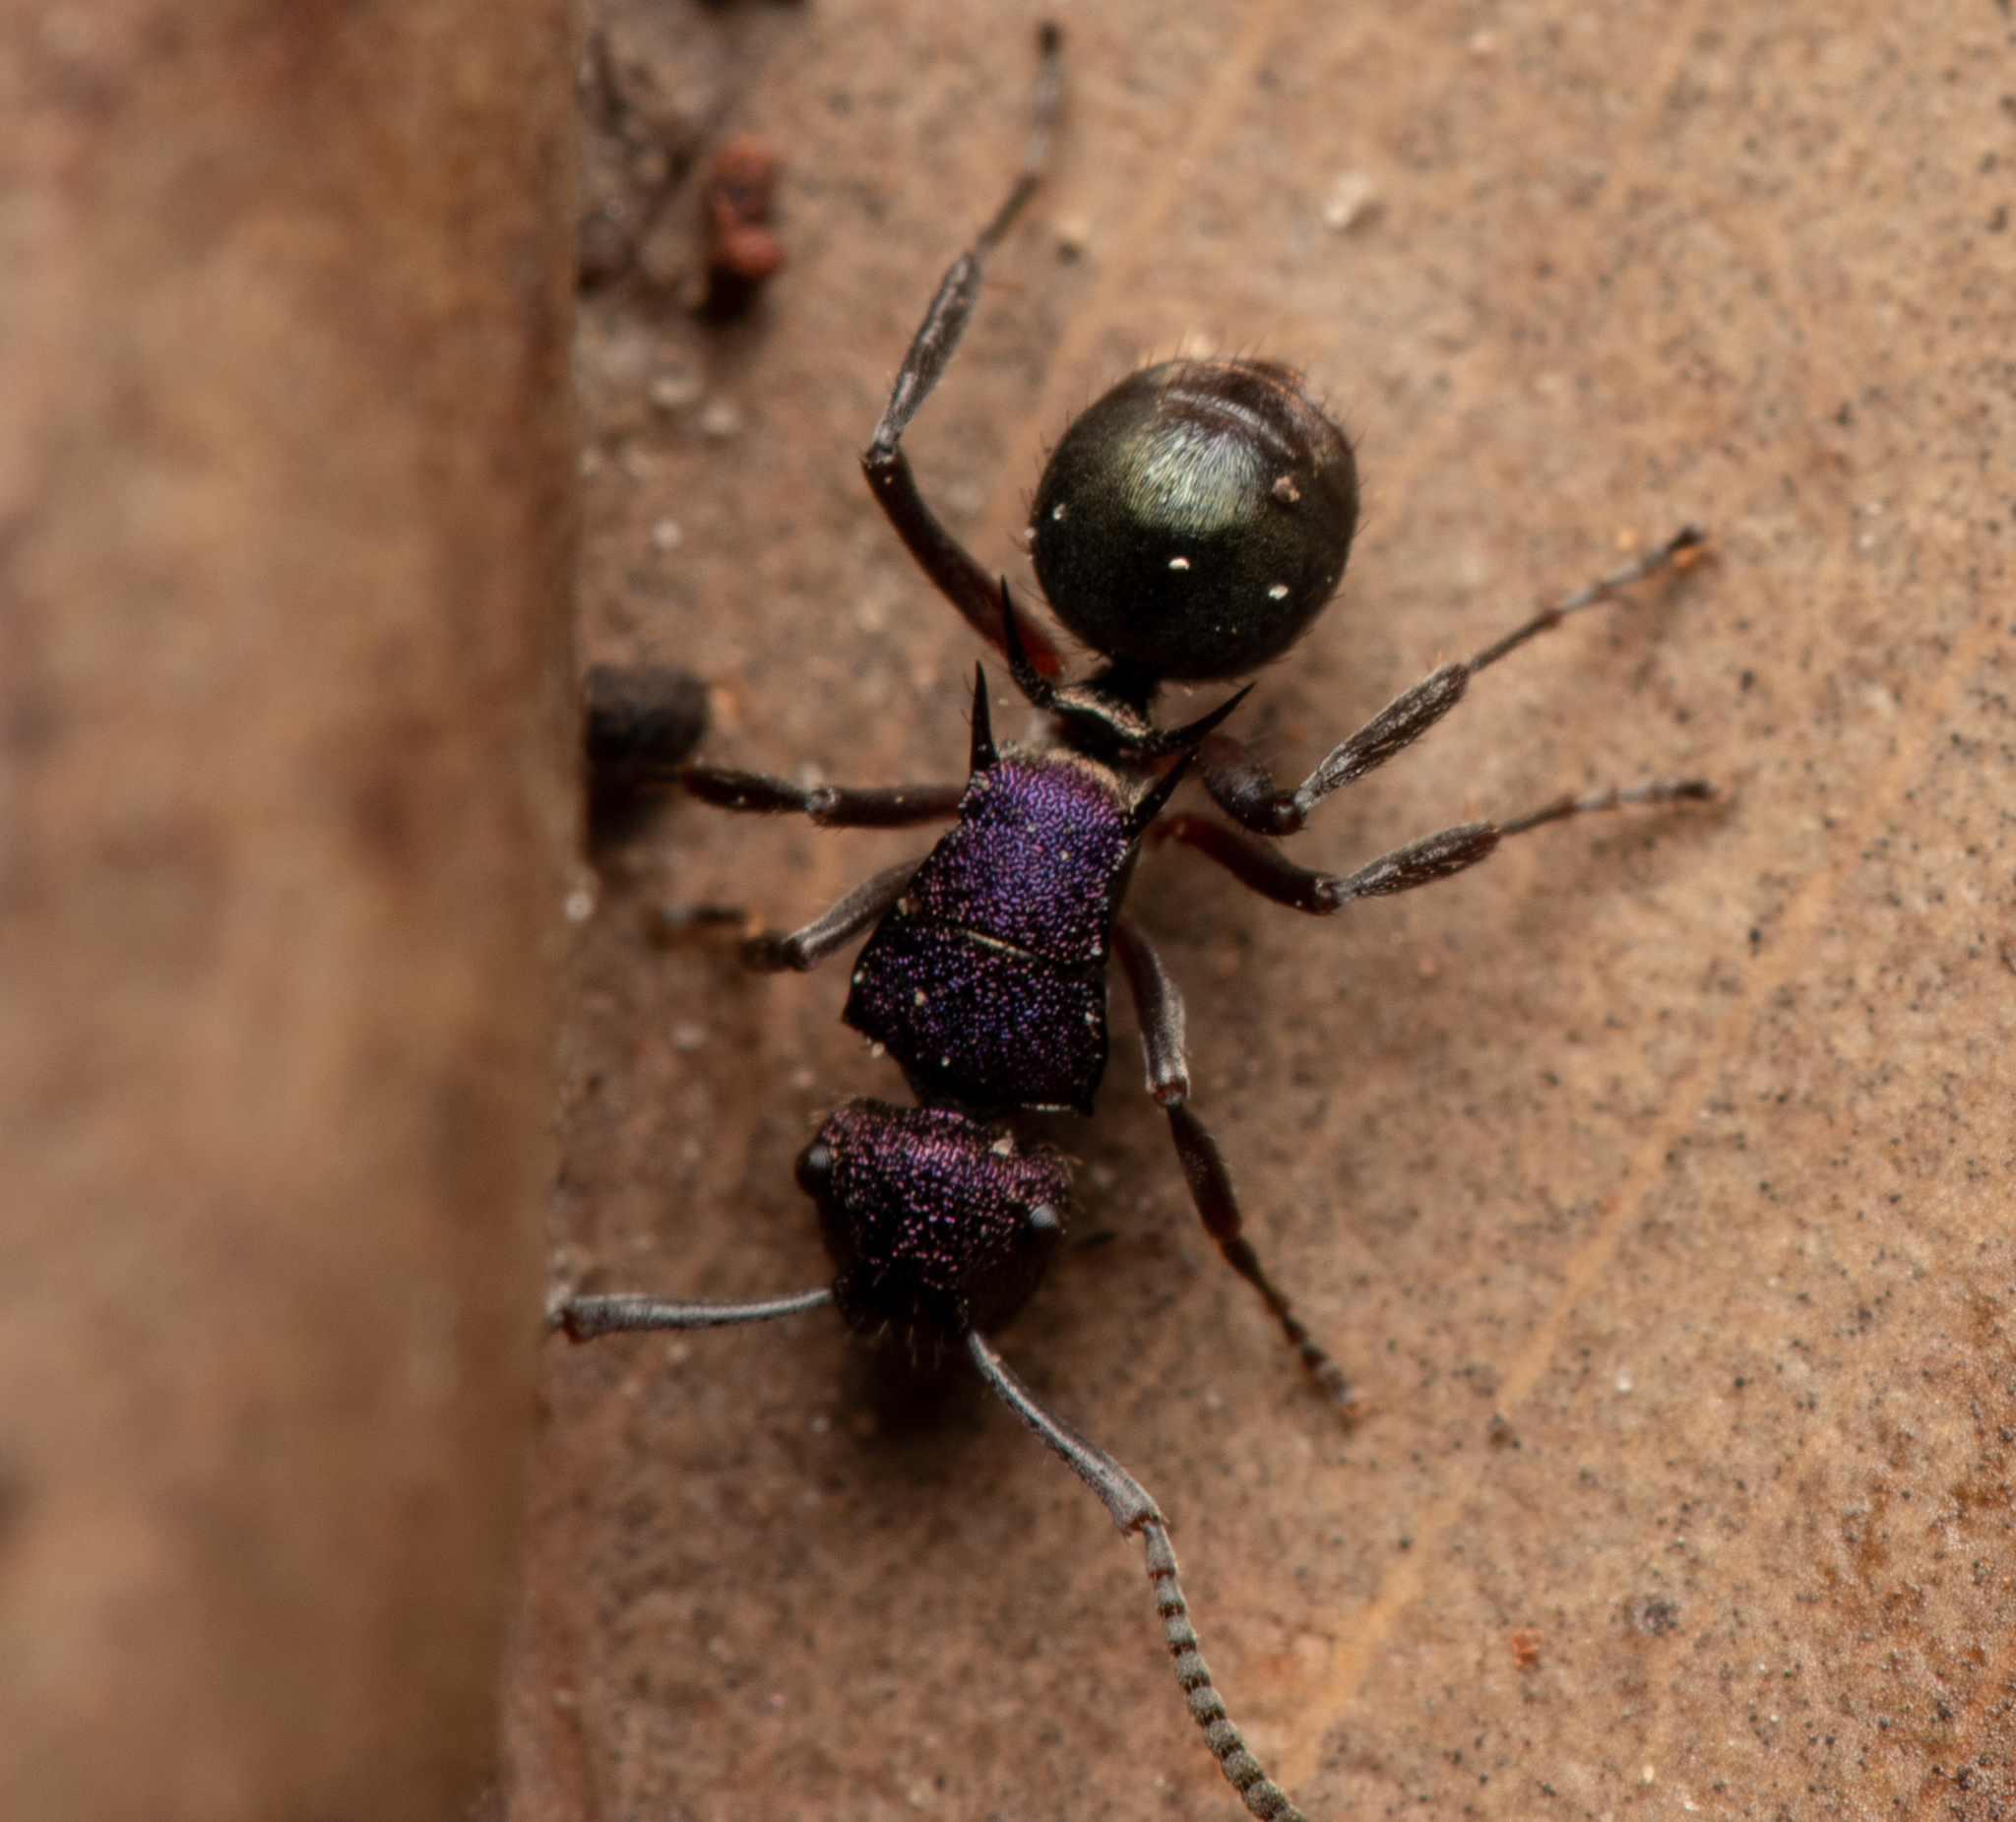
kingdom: Animalia
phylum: Arthropoda
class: Insecta
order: Hymenoptera
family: Formicidae
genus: Polyrhachis
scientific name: Polyrhachis hookeri
